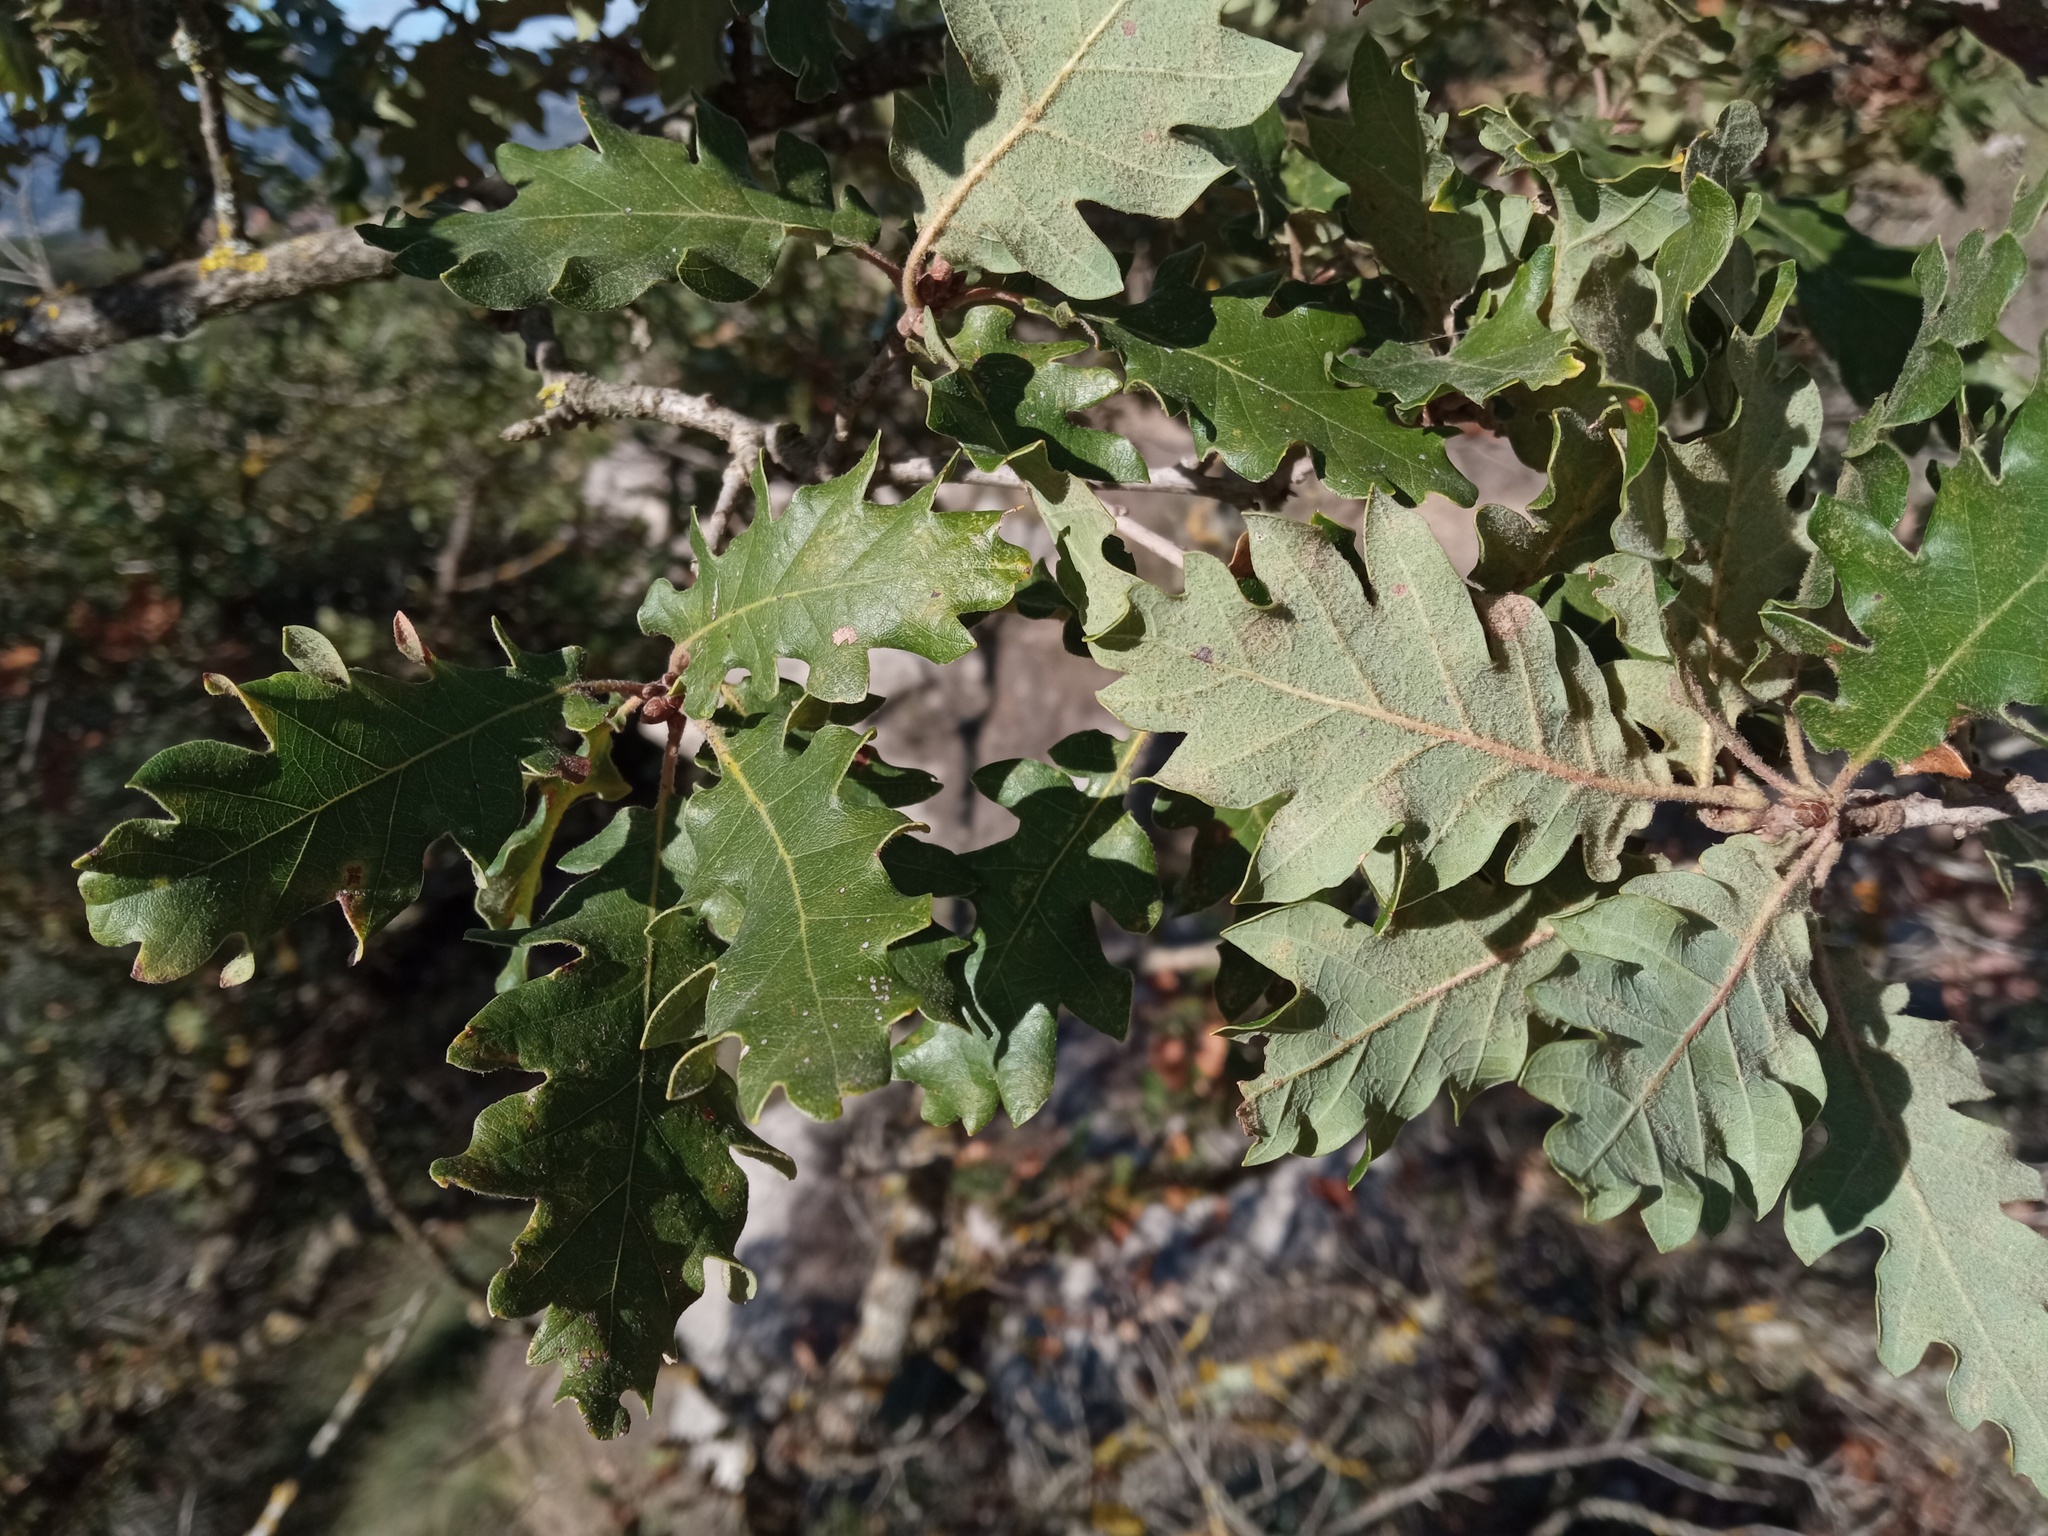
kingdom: Plantae
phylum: Tracheophyta
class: Magnoliopsida
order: Fagales
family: Fagaceae
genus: Quercus
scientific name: Quercus cerrioides
